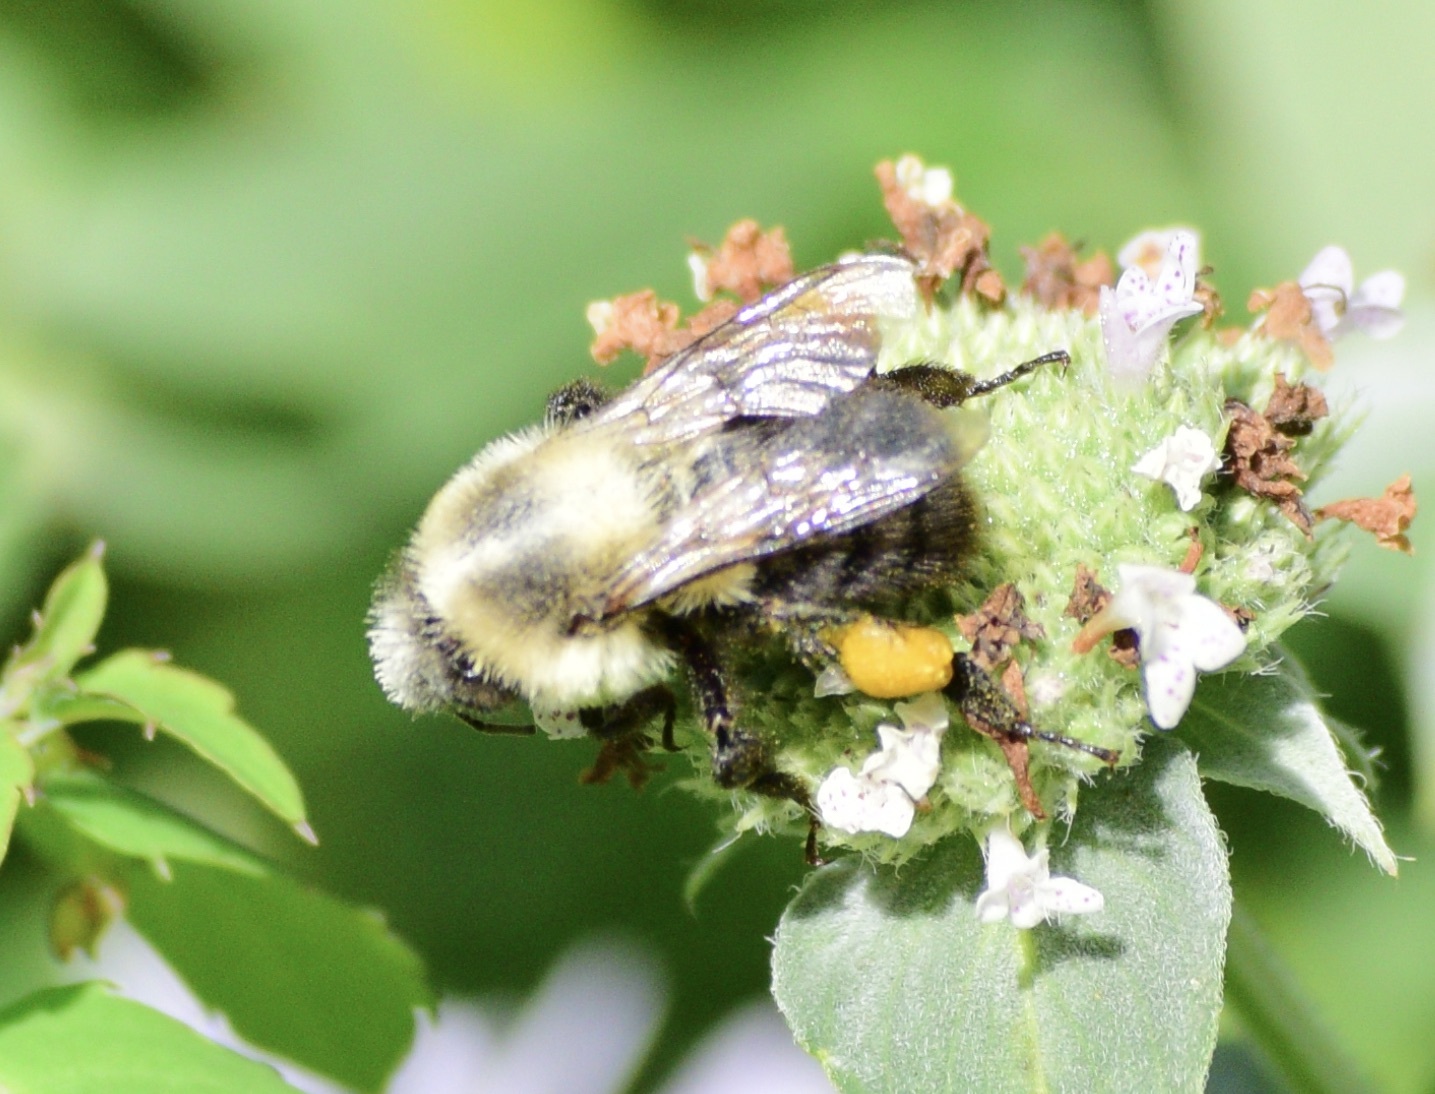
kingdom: Animalia
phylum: Arthropoda
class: Insecta
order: Hymenoptera
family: Apidae
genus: Bombus
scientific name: Bombus impatiens
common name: Common eastern bumble bee
